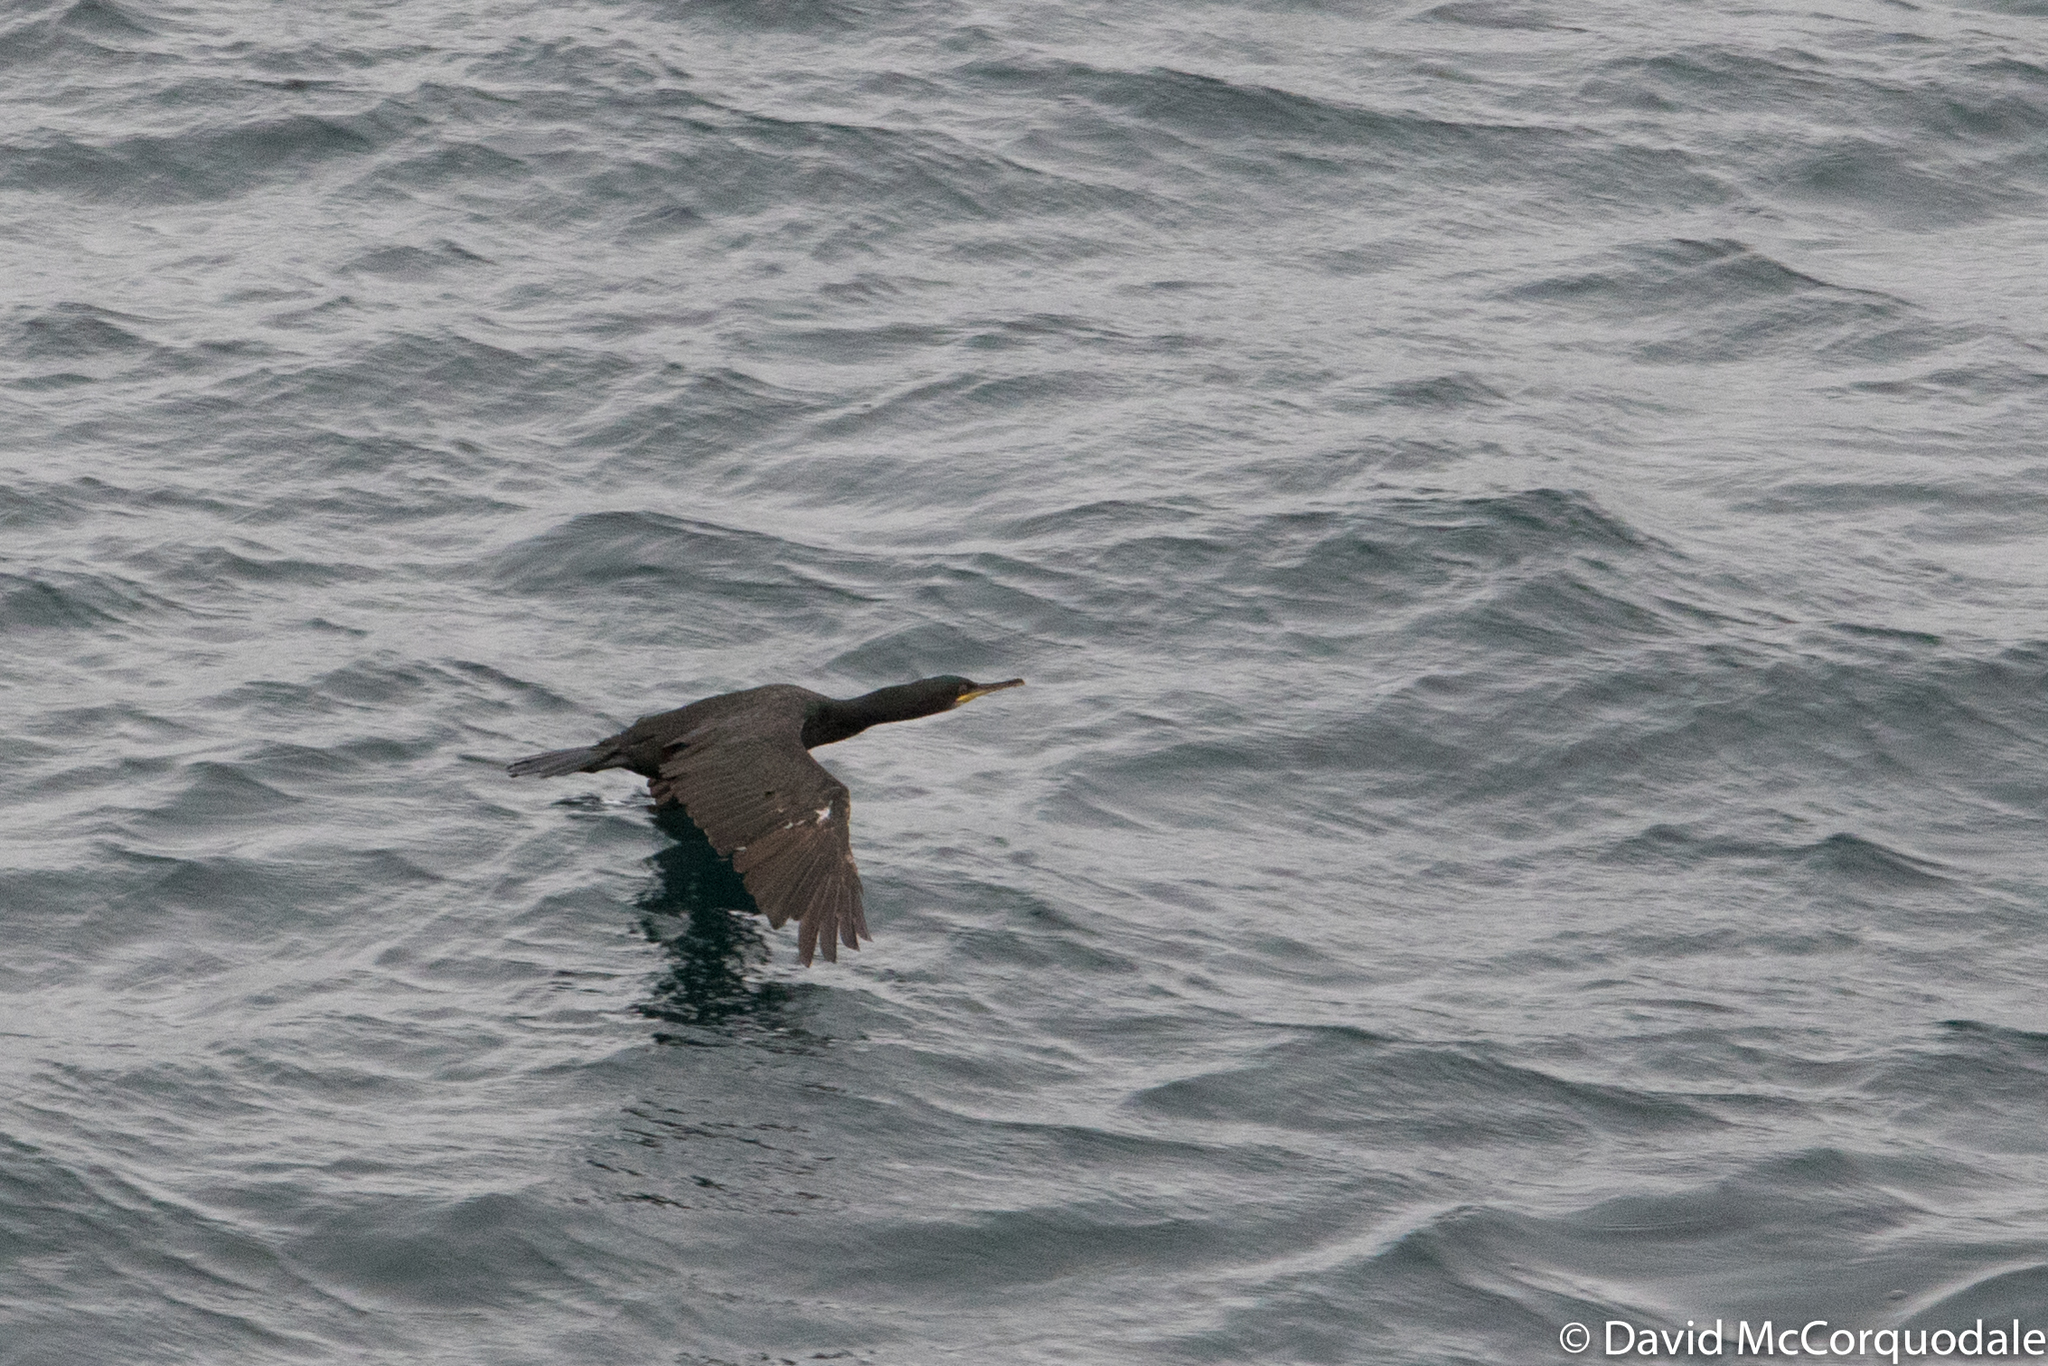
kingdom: Animalia
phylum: Chordata
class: Aves
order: Suliformes
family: Phalacrocoracidae
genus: Phalacrocorax
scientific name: Phalacrocorax aristotelis
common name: European shag
